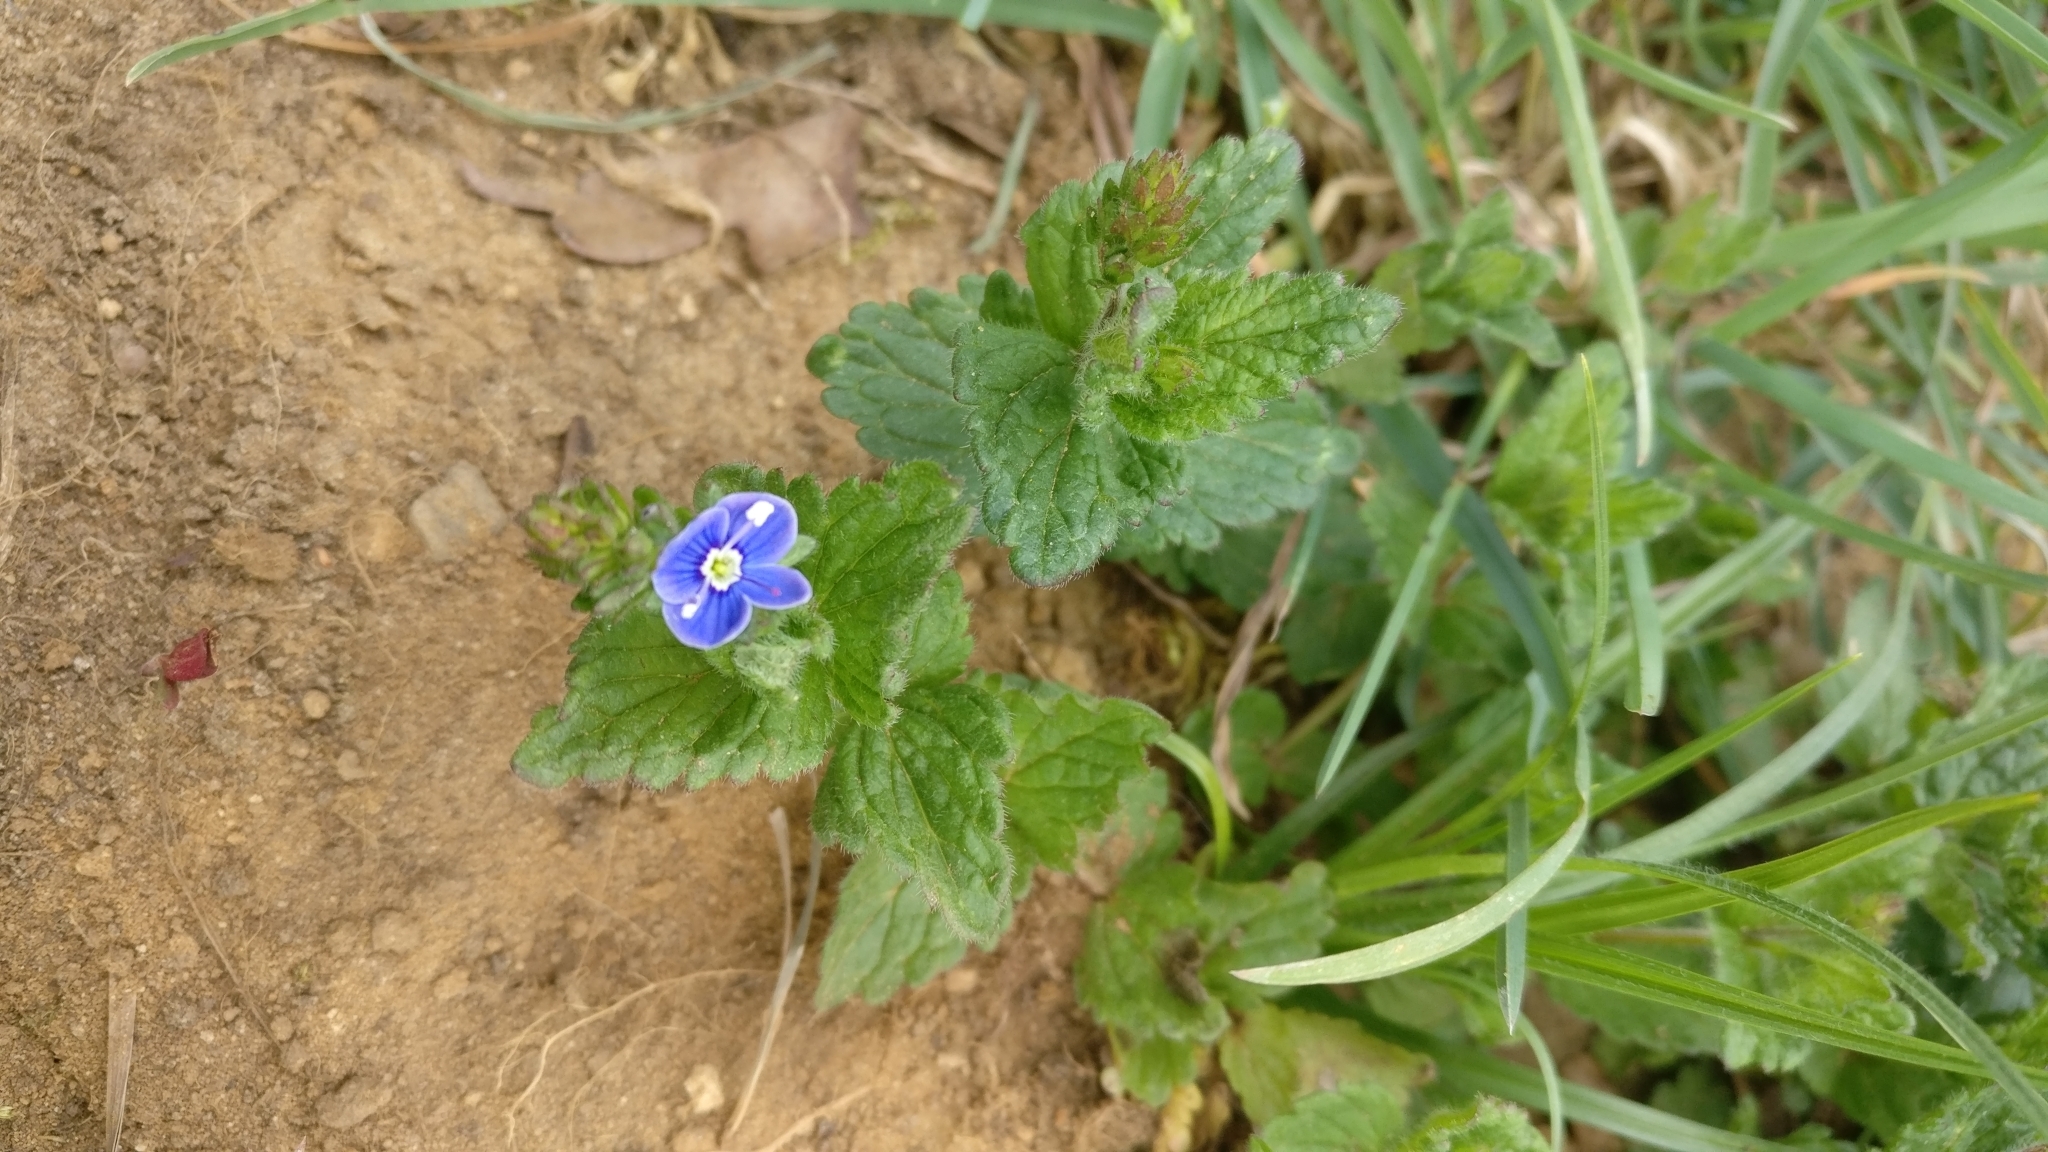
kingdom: Plantae
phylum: Tracheophyta
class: Magnoliopsida
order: Lamiales
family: Plantaginaceae
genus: Veronica
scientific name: Veronica chamaedrys
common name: Germander speedwell
